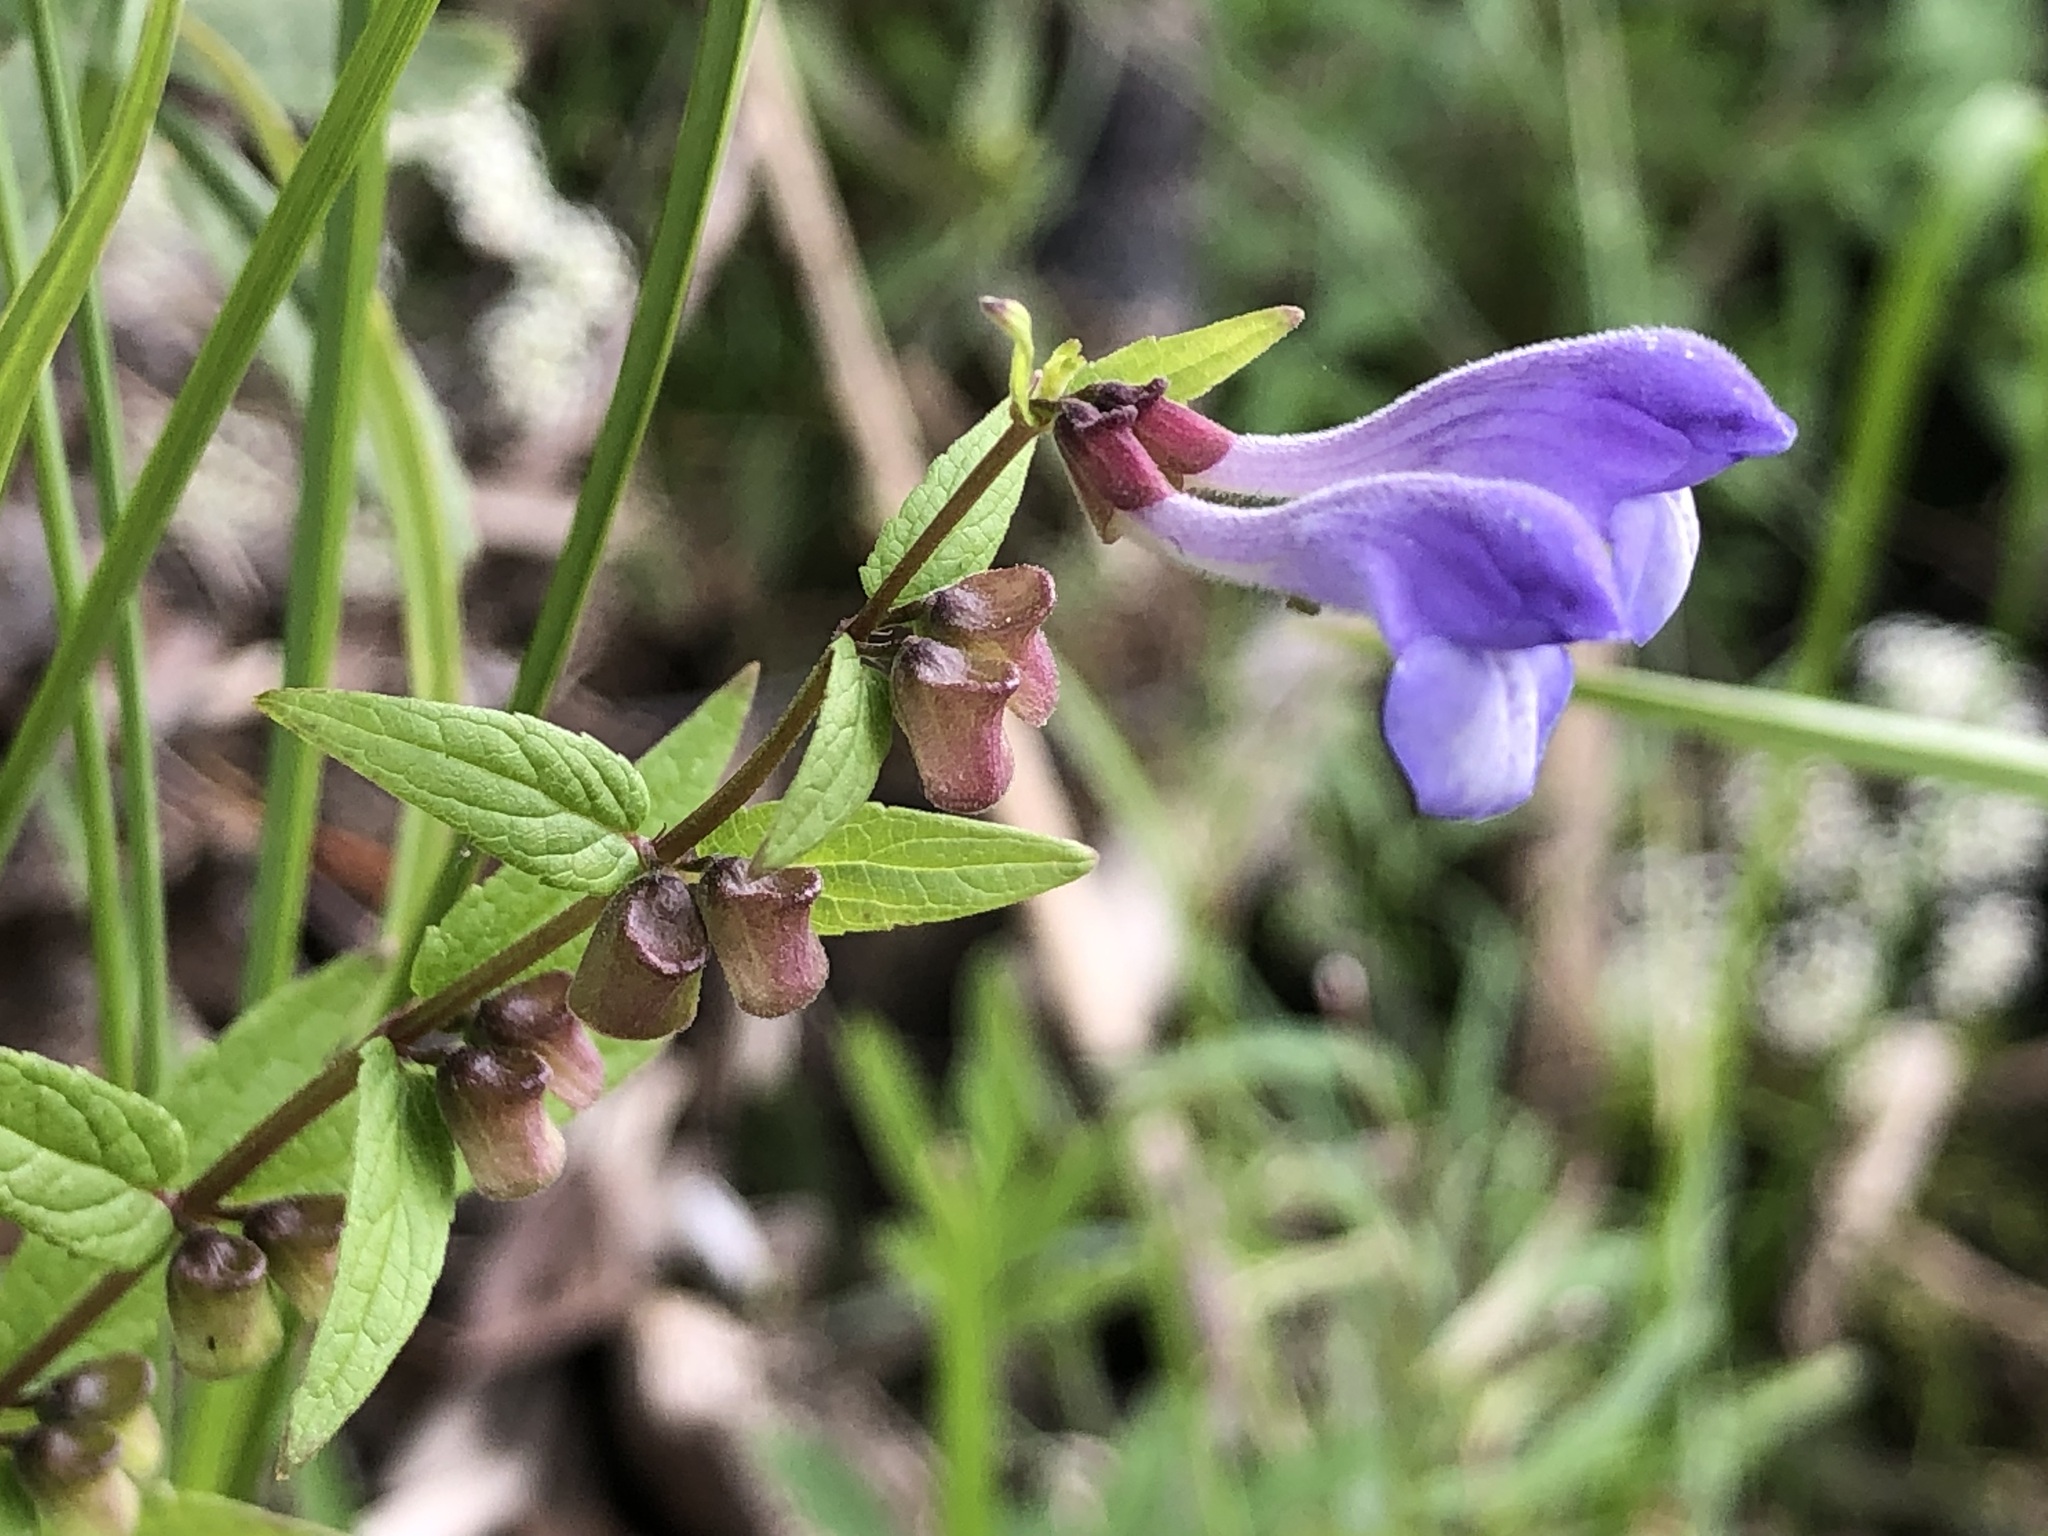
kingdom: Plantae
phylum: Tracheophyta
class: Magnoliopsida
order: Lamiales
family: Lamiaceae
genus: Scutellaria
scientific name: Scutellaria galericulata
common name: Skullcap
